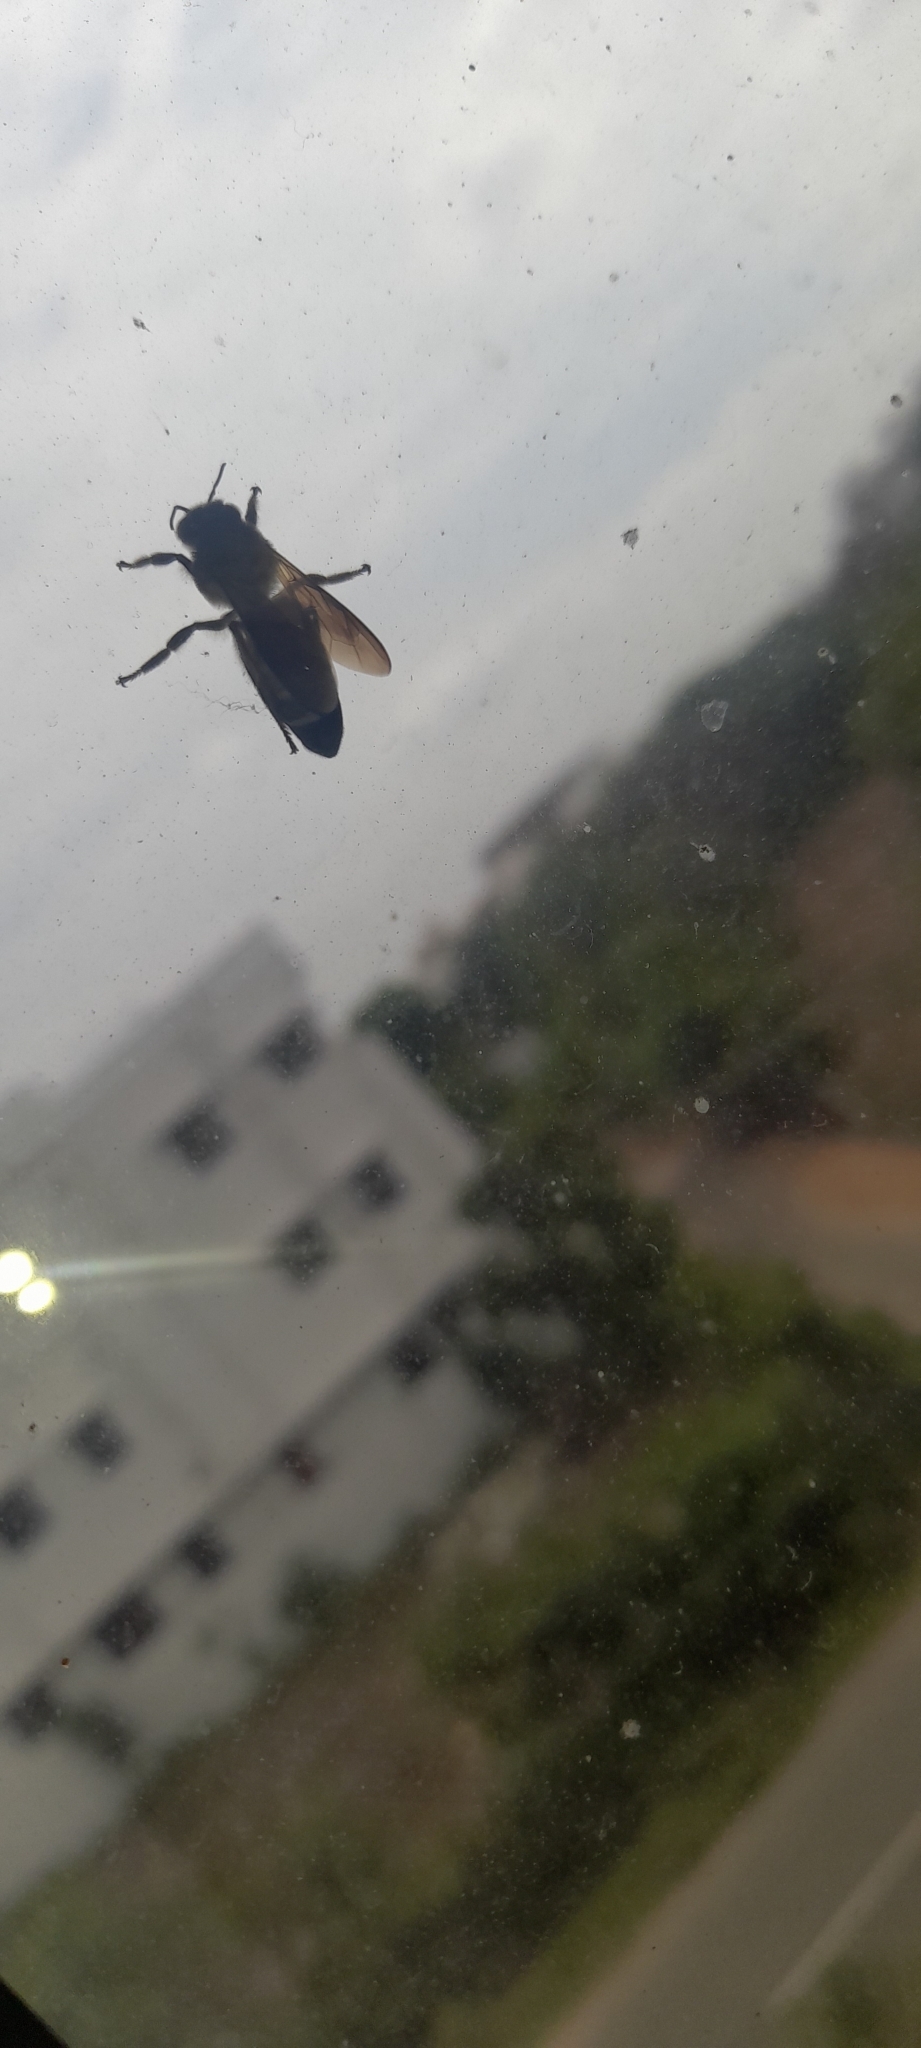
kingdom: Animalia
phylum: Arthropoda
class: Insecta
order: Hymenoptera
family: Apidae
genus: Apis
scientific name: Apis dorsata
